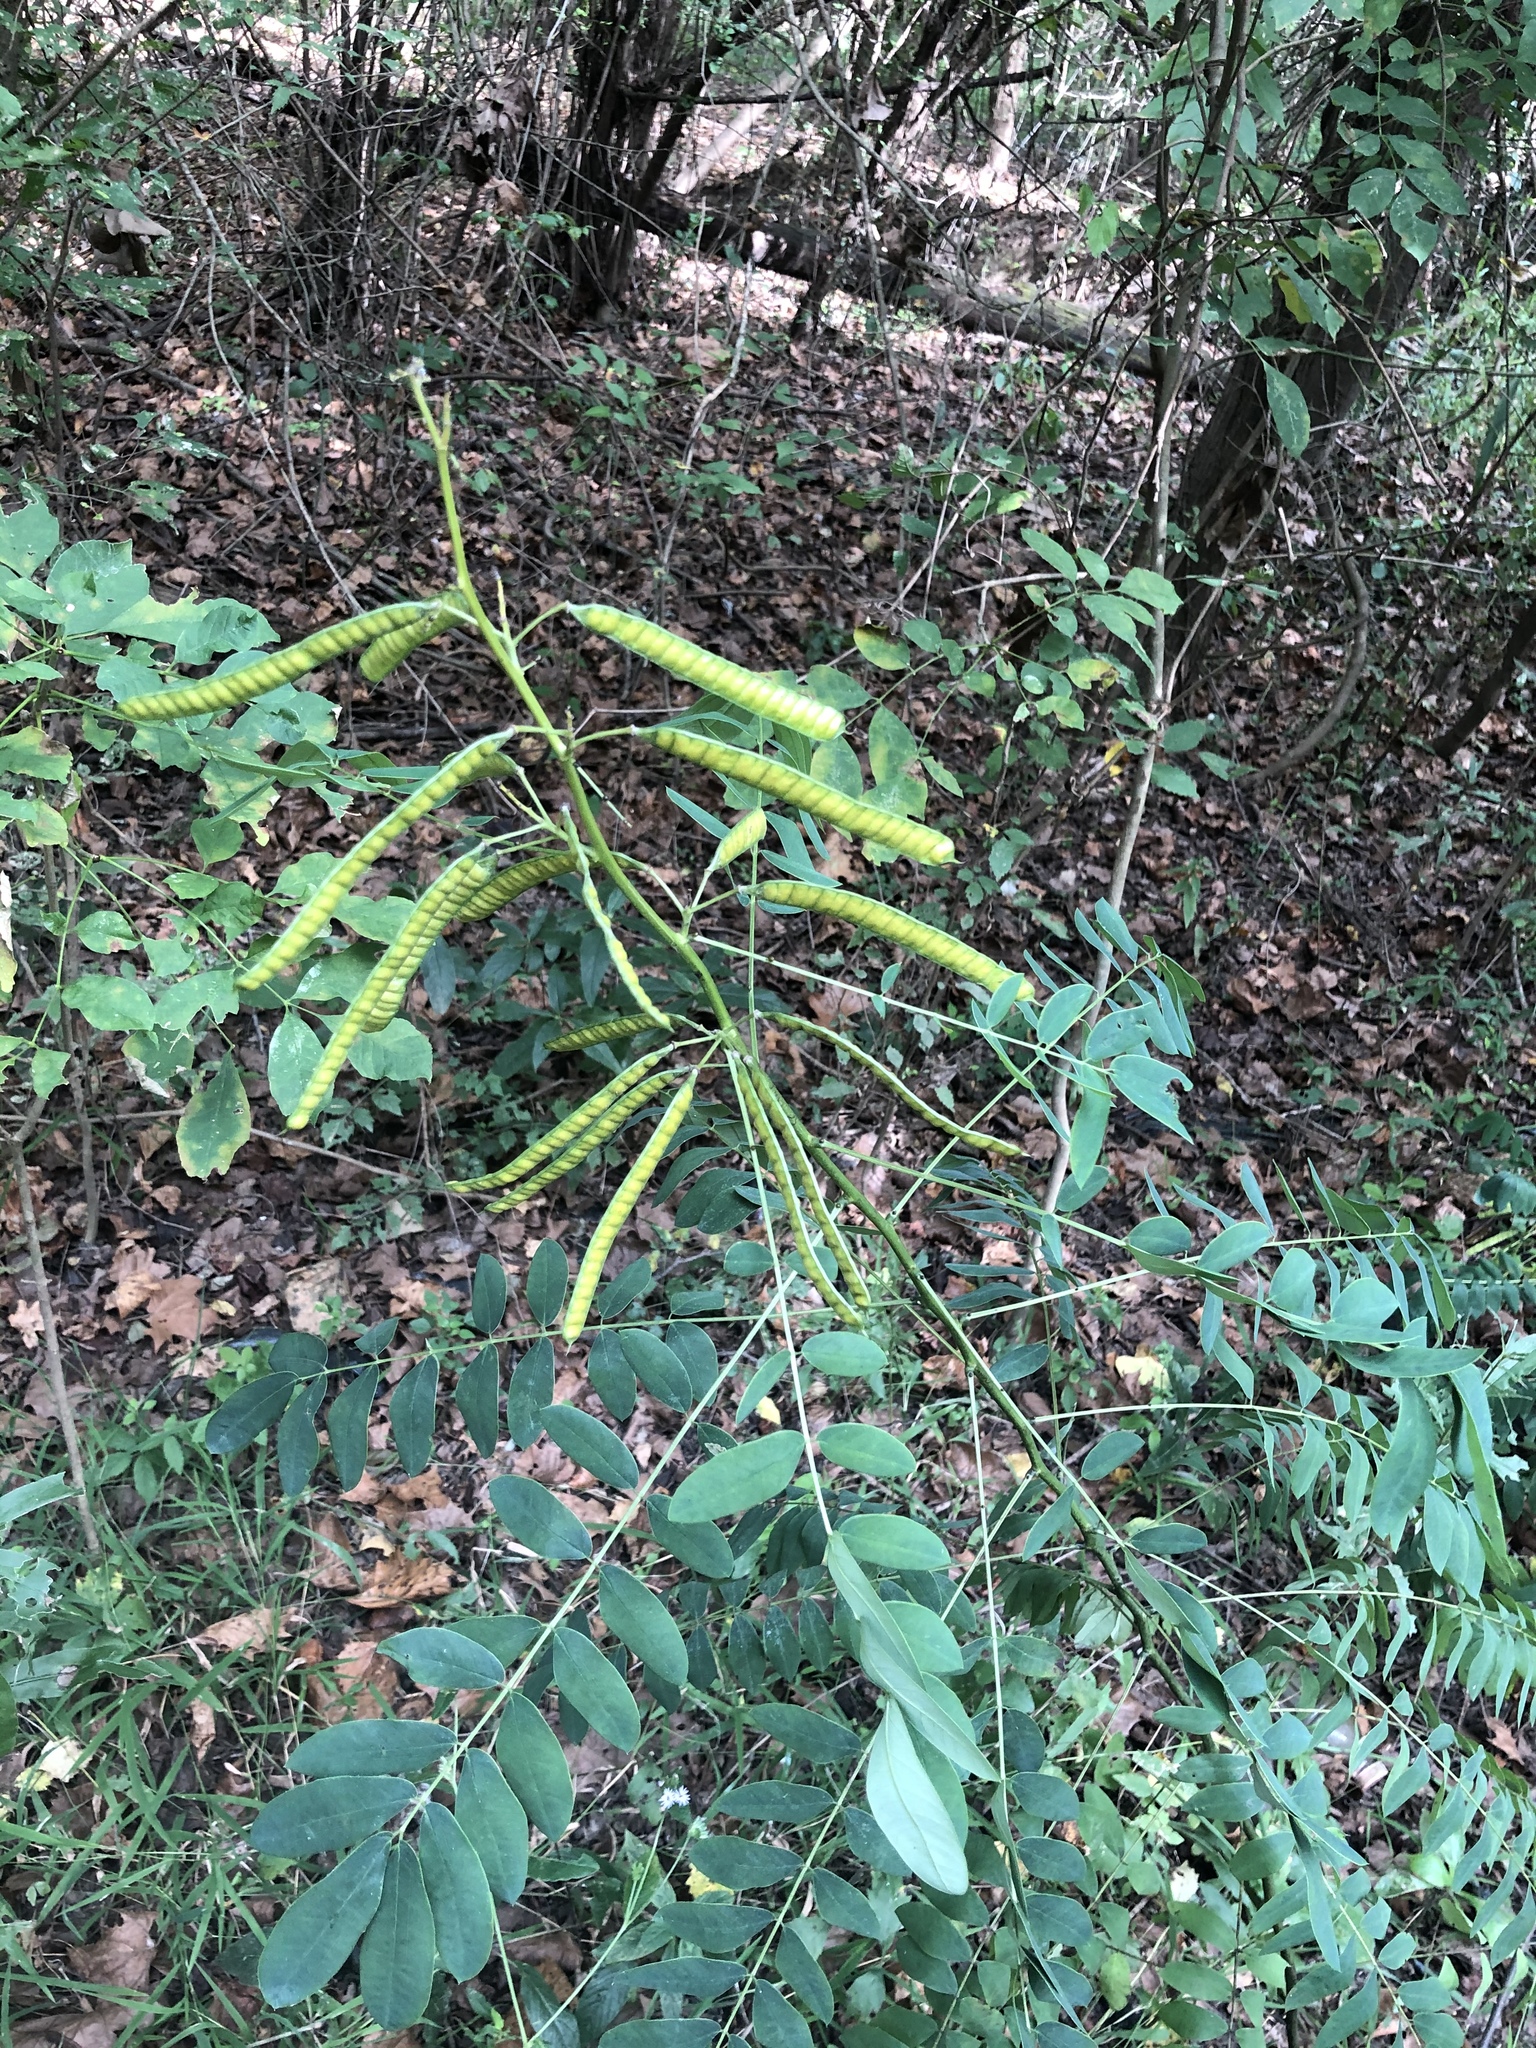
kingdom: Plantae
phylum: Tracheophyta
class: Magnoliopsida
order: Fabales
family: Fabaceae
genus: Senna
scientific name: Senna marilandica
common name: American senna
